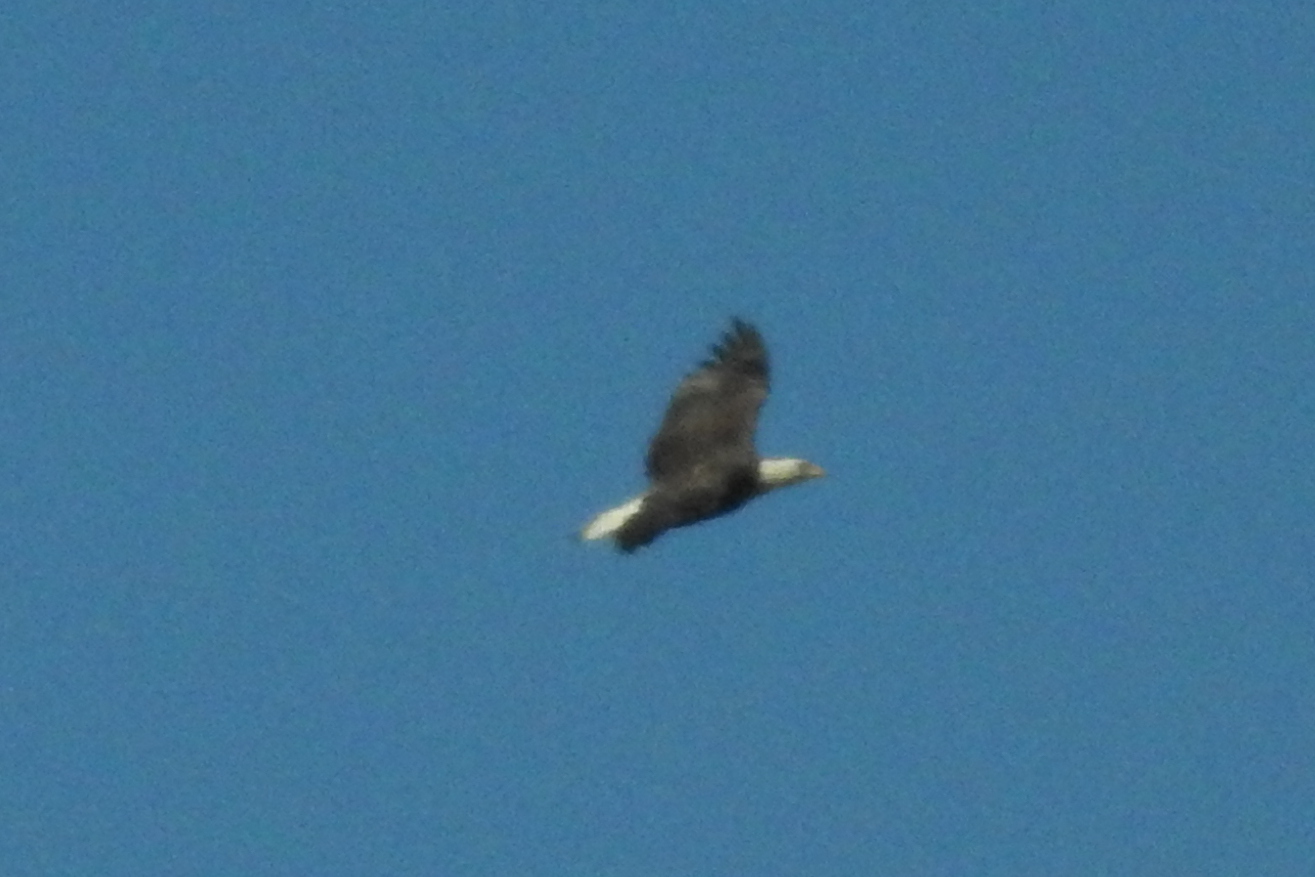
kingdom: Animalia
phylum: Chordata
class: Aves
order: Accipitriformes
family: Accipitridae
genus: Haliaeetus
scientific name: Haliaeetus leucocephalus
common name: Bald eagle
